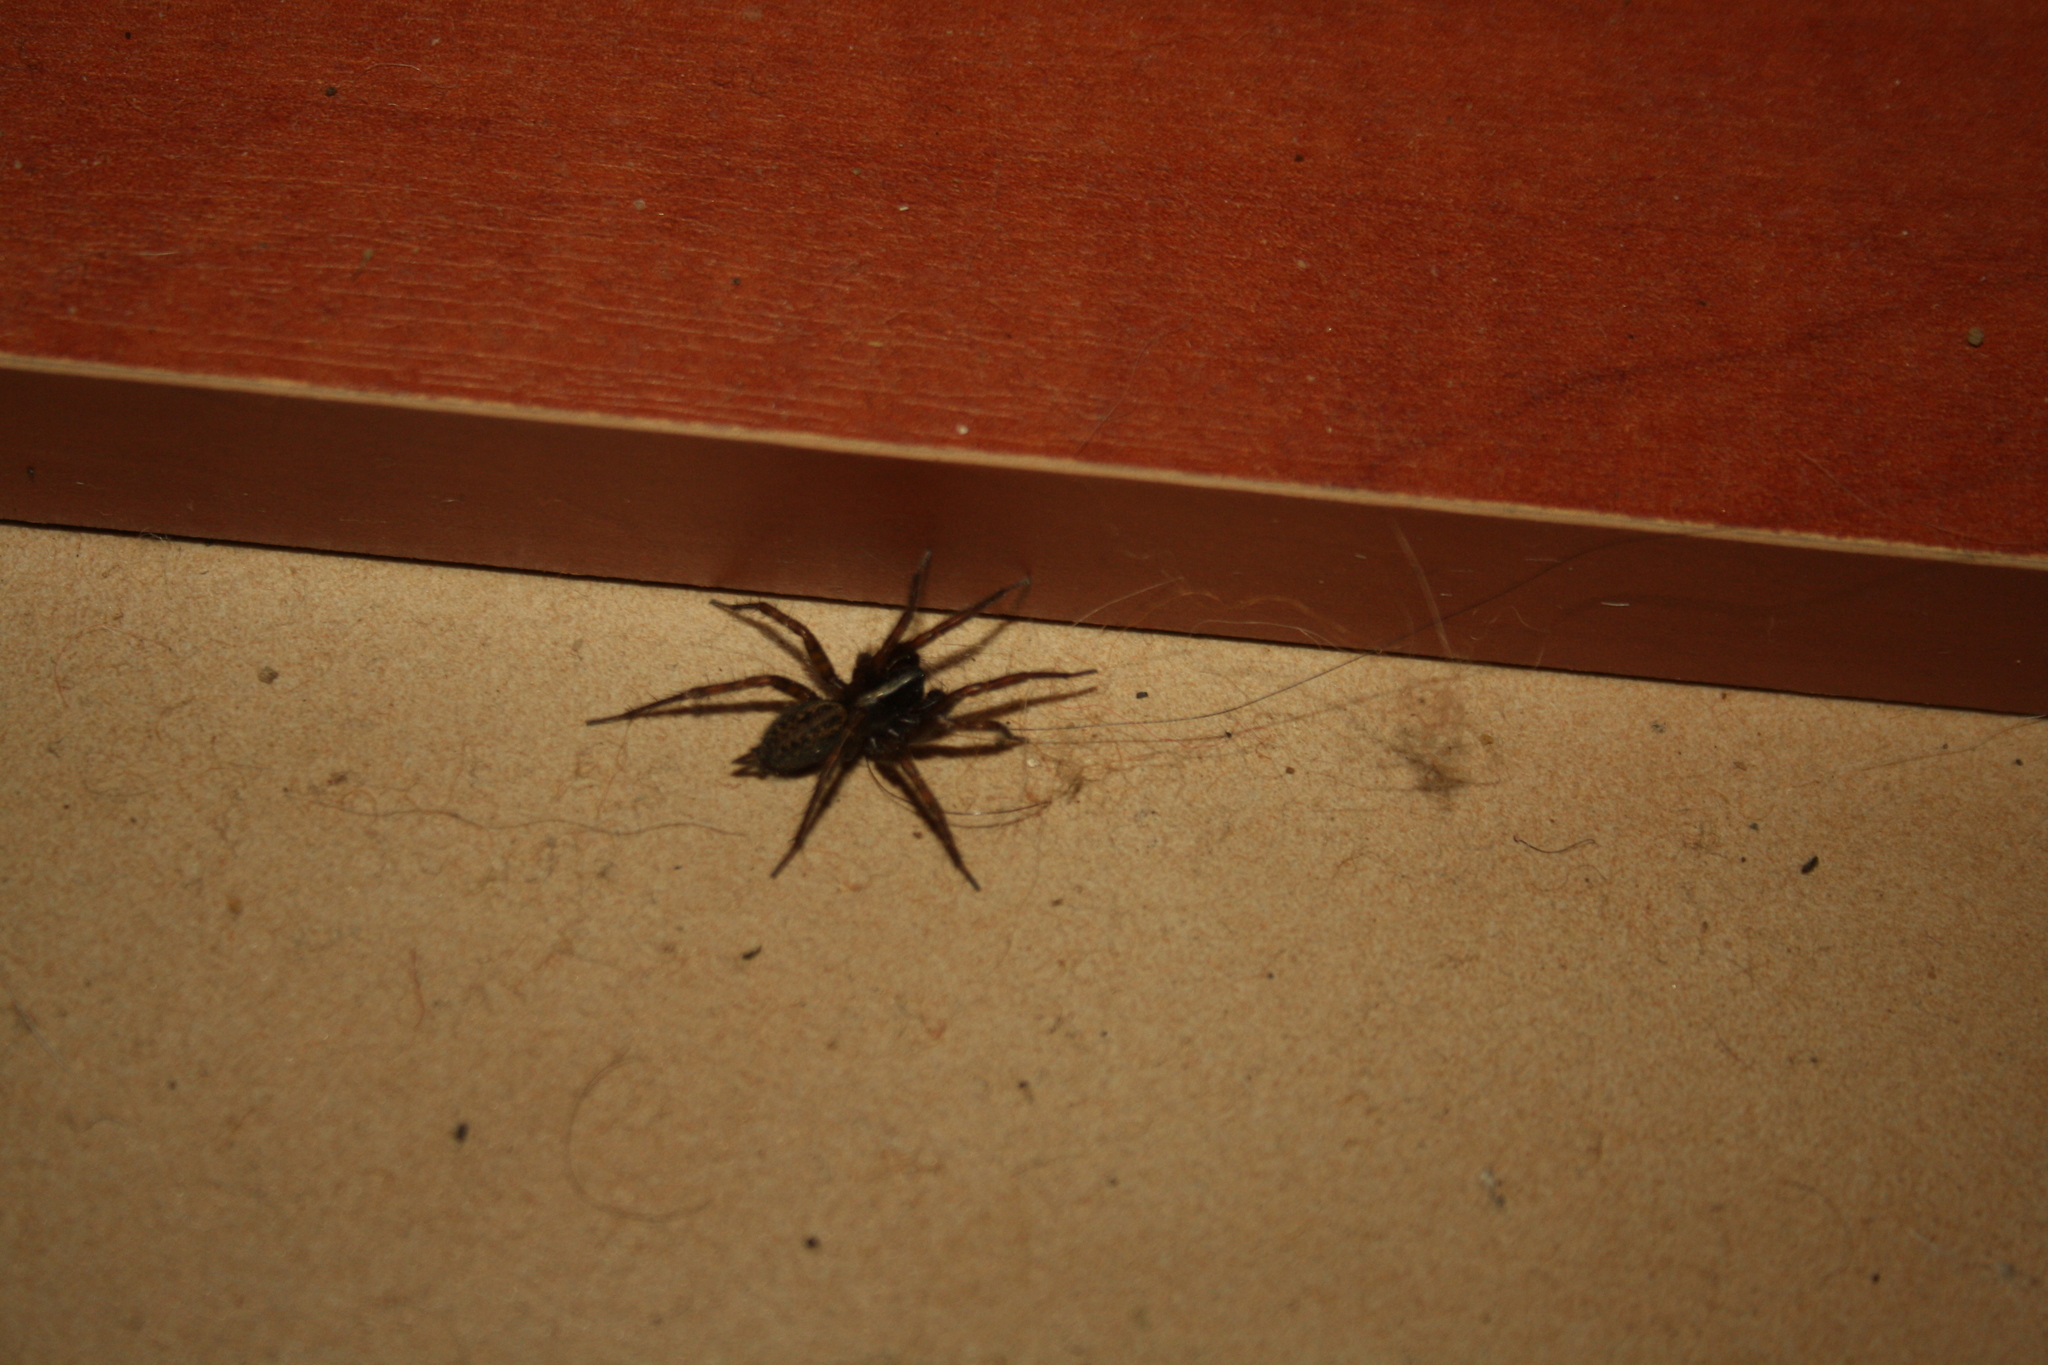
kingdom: Animalia
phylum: Arthropoda
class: Arachnida
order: Araneae
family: Agelenidae
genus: Maimuna
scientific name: Maimuna vestita
